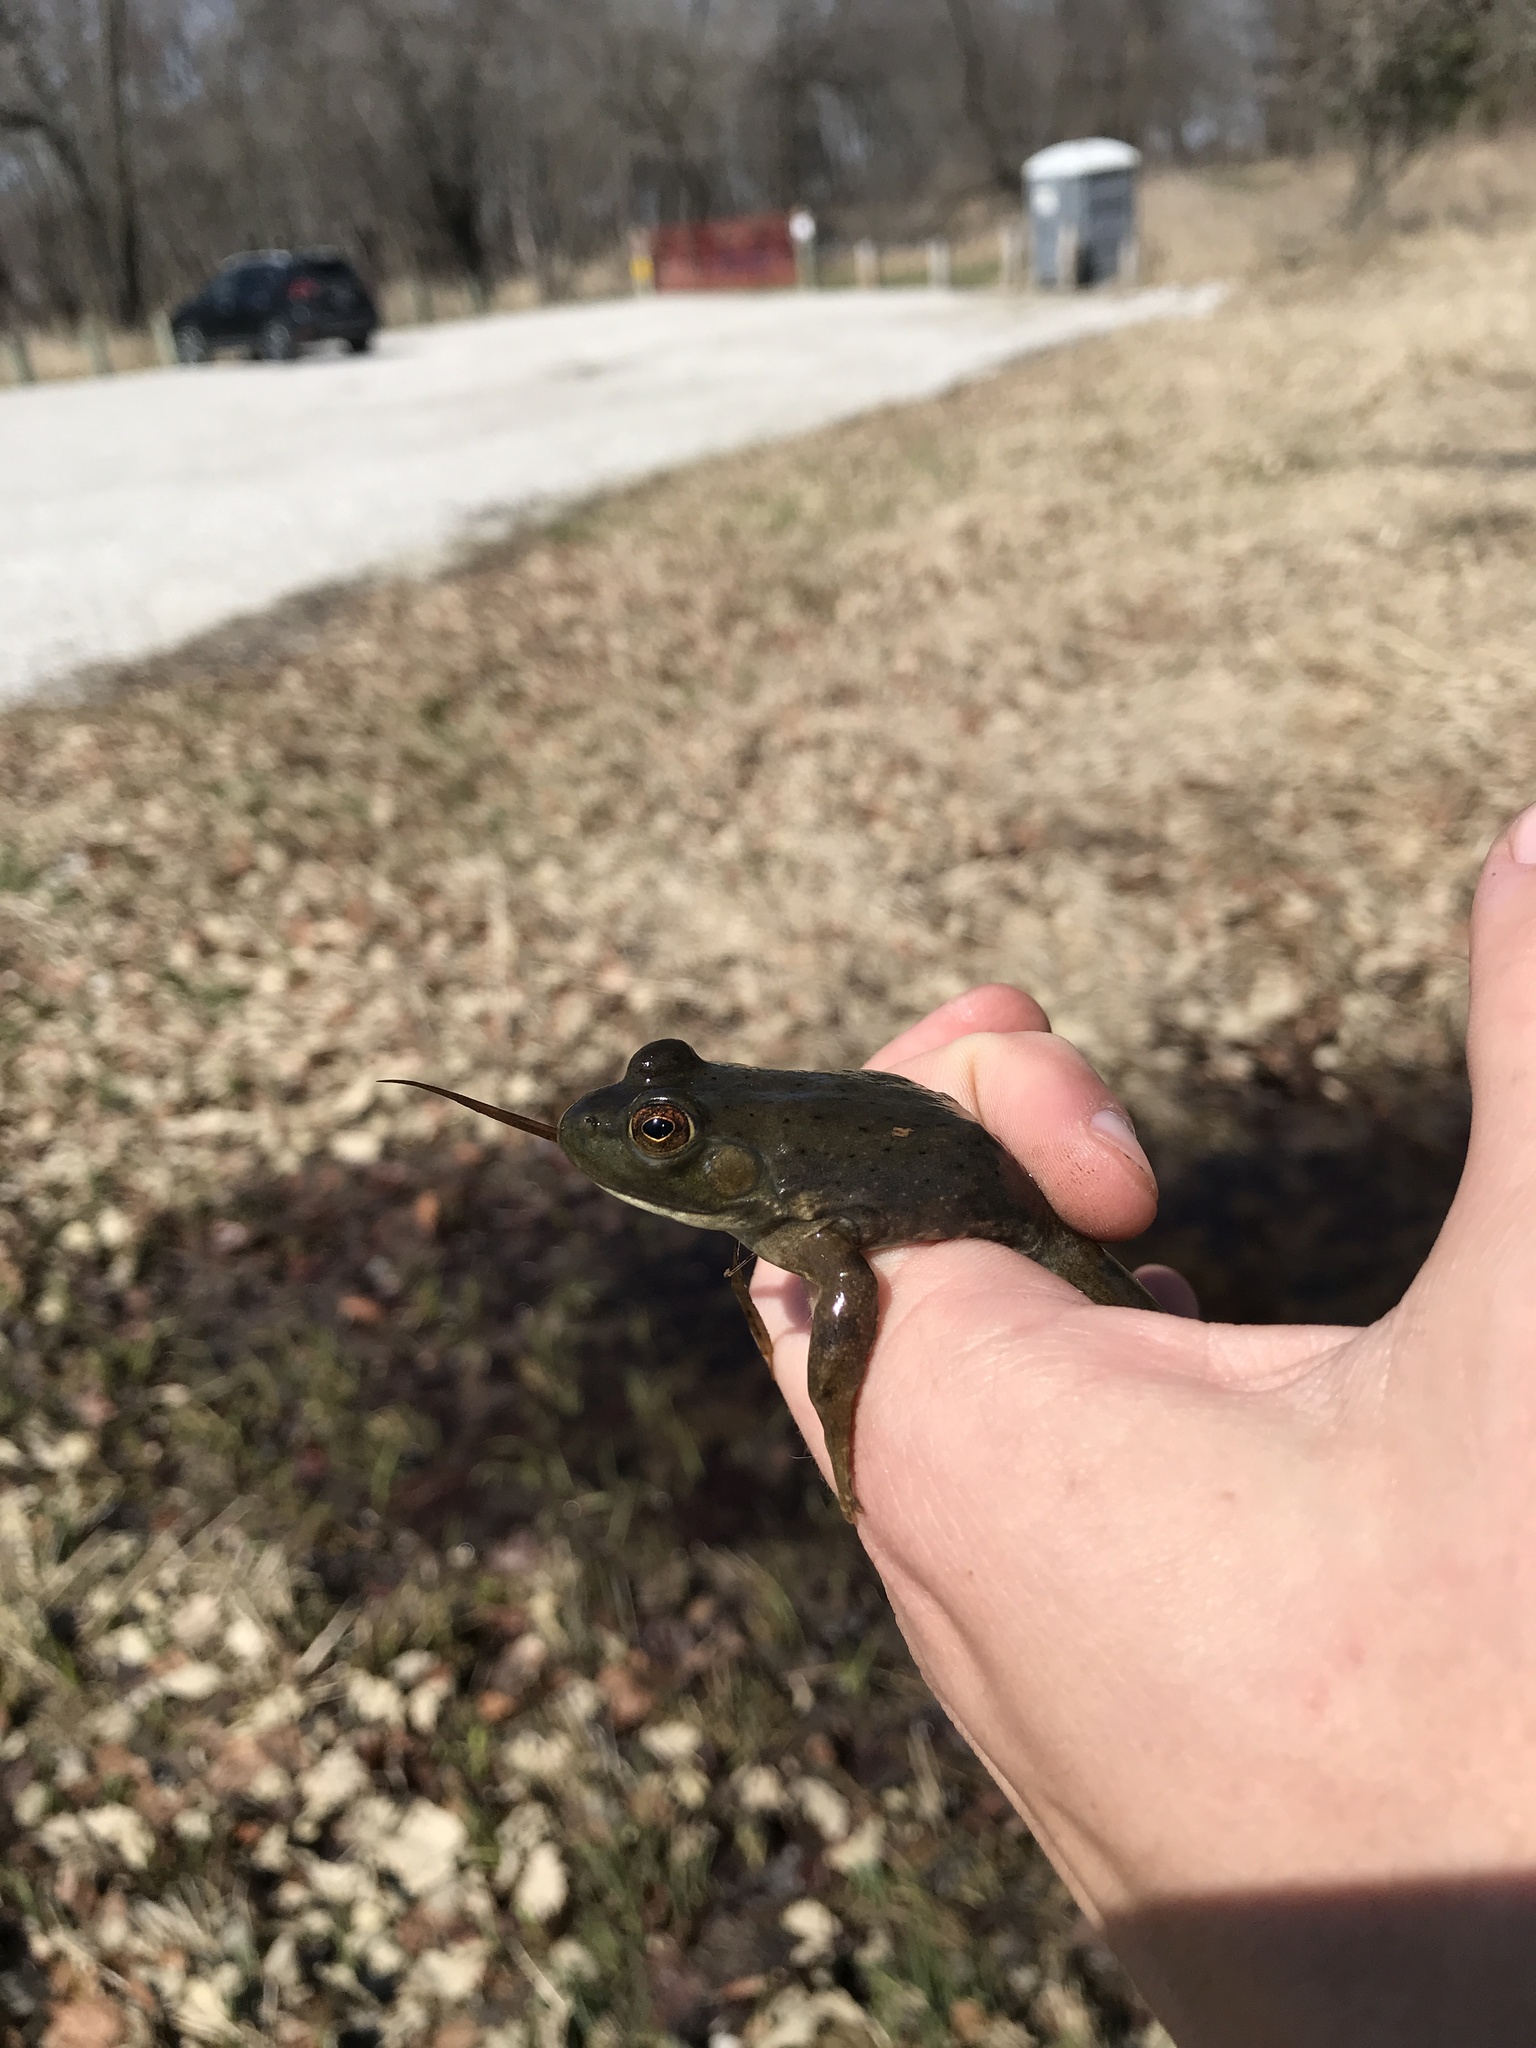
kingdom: Animalia
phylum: Chordata
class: Amphibia
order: Anura
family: Ranidae
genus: Lithobates
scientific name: Lithobates catesbeianus
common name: American bullfrog
